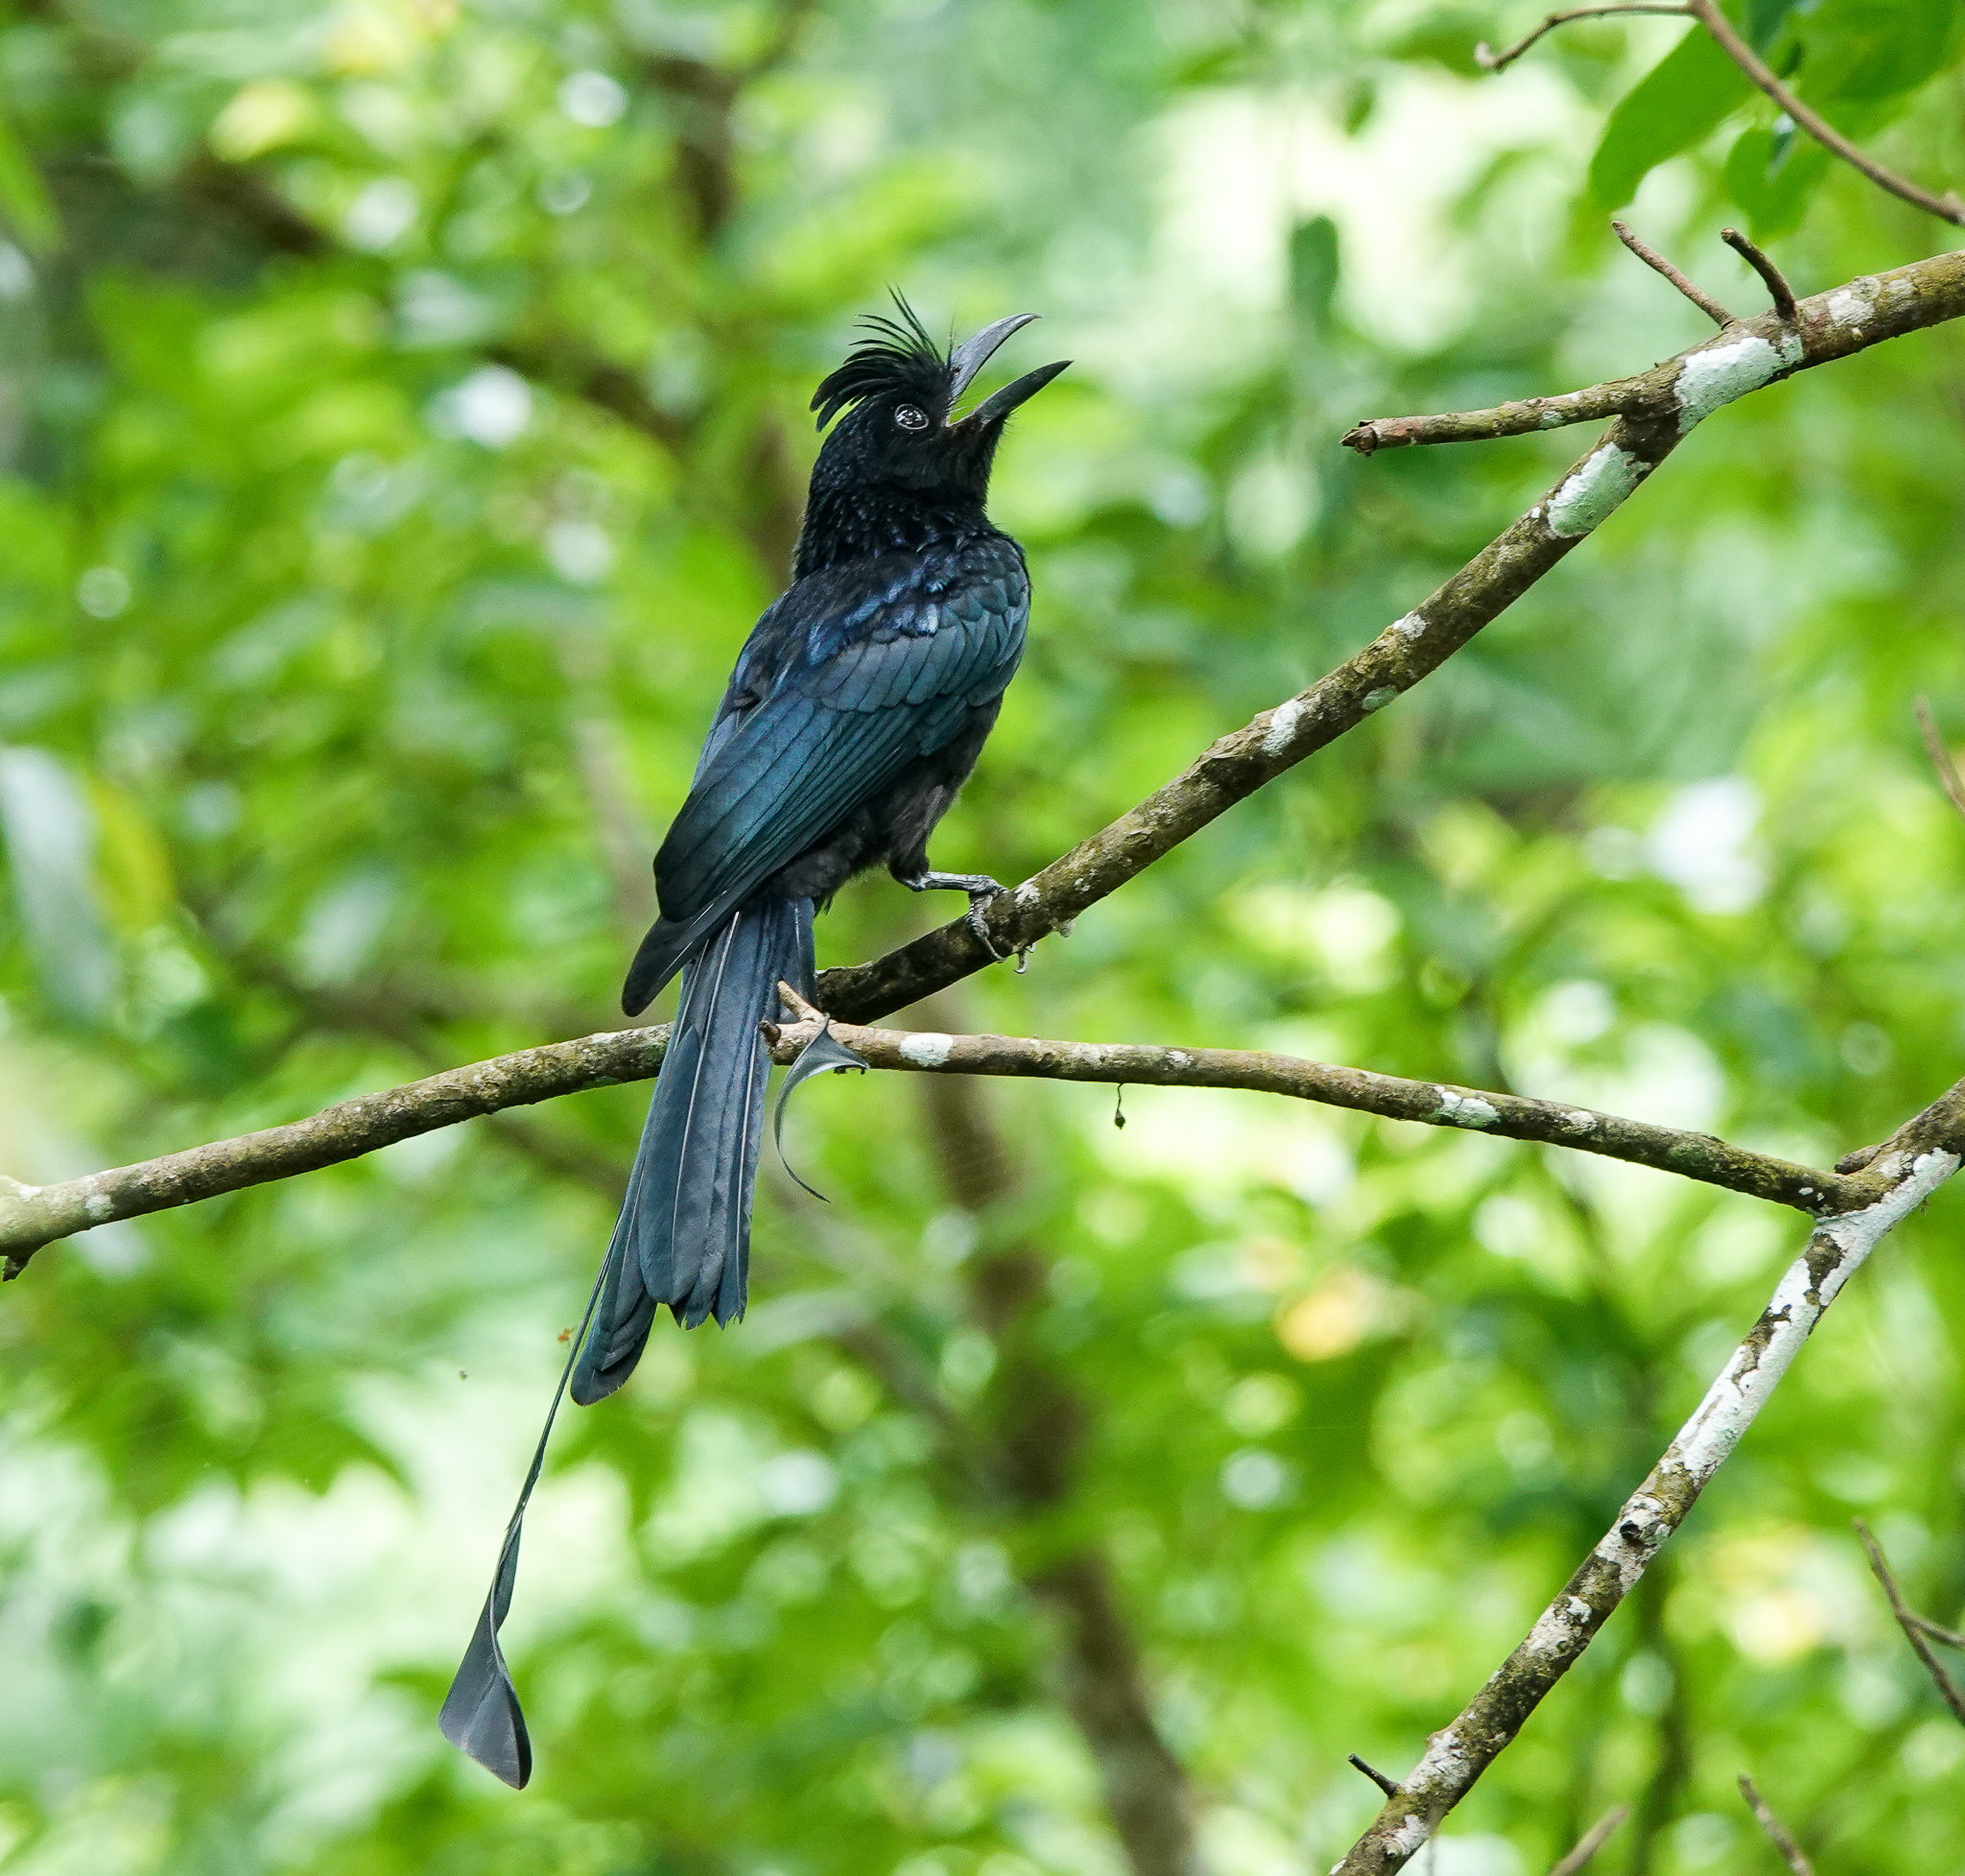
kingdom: Animalia
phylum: Chordata
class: Aves
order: Passeriformes
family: Dicruridae
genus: Dicrurus
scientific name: Dicrurus paradiseus
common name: Greater racket-tailed drongo
